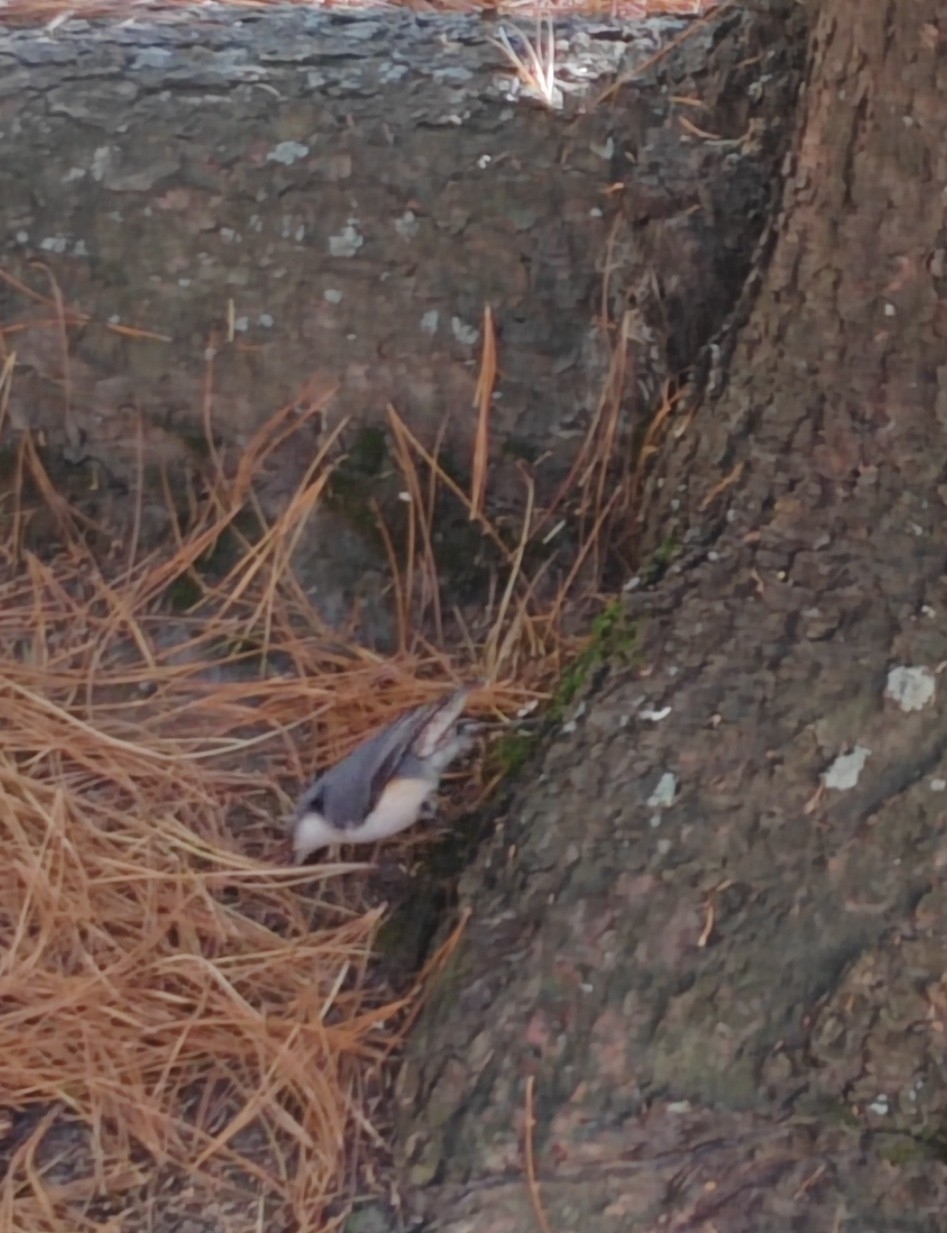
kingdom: Animalia
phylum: Chordata
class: Aves
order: Passeriformes
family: Sittidae
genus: Sitta
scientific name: Sitta europaea
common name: Eurasian nuthatch
